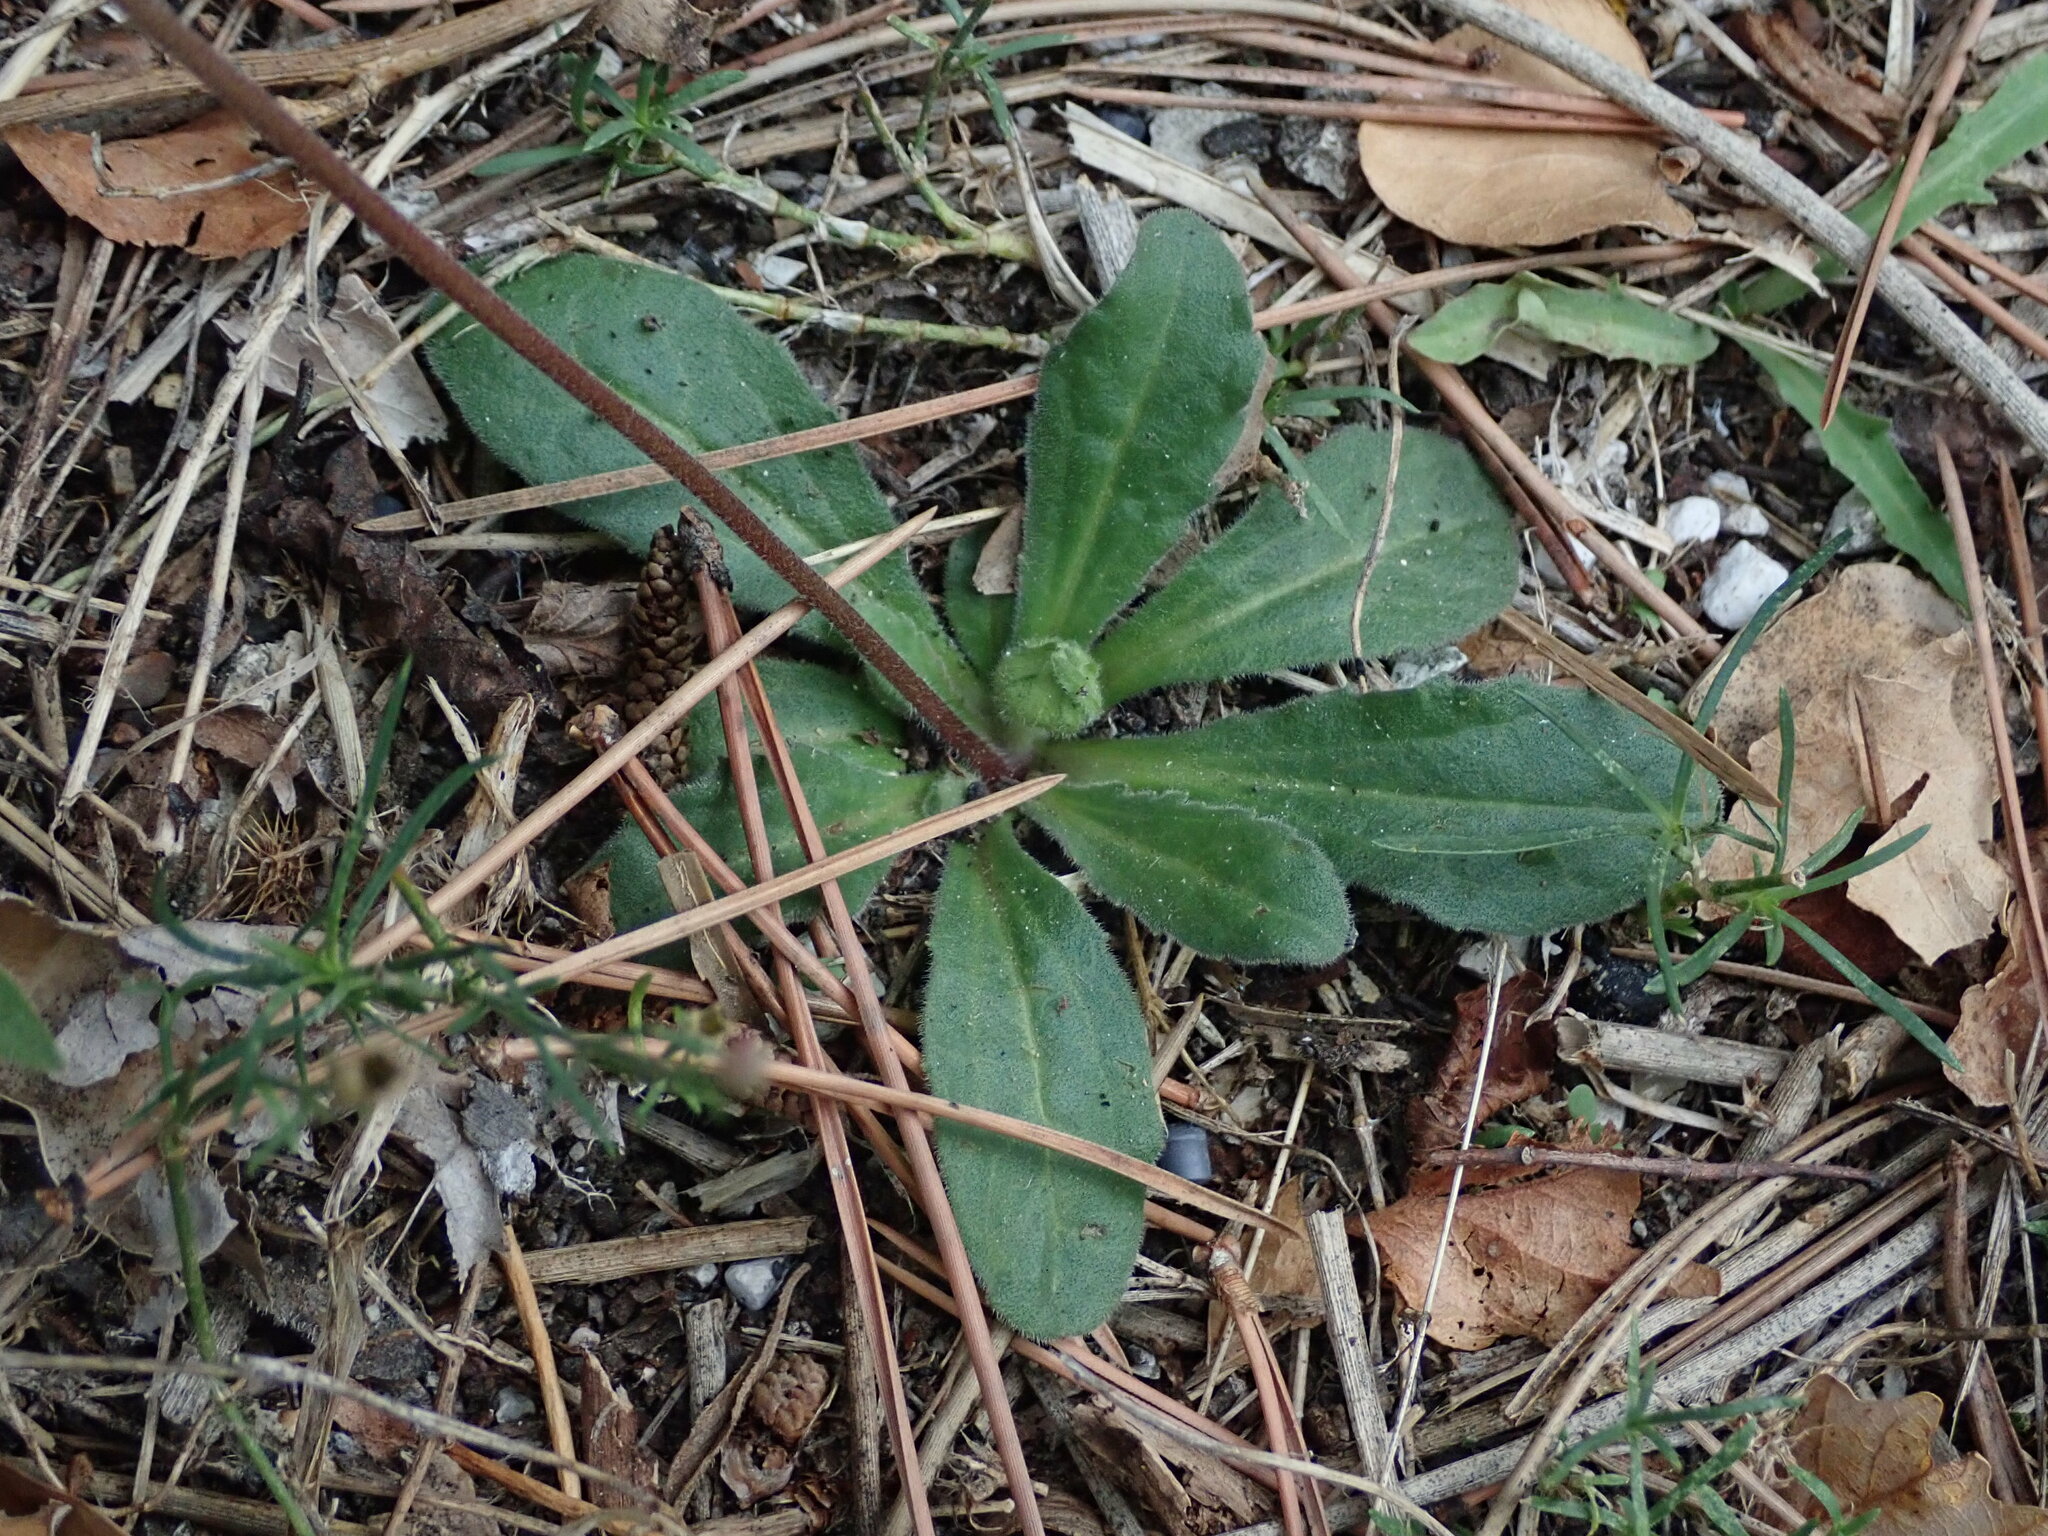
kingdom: Plantae
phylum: Tracheophyta
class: Magnoliopsida
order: Asterales
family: Asteraceae
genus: Bellis
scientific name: Bellis sylvestris
